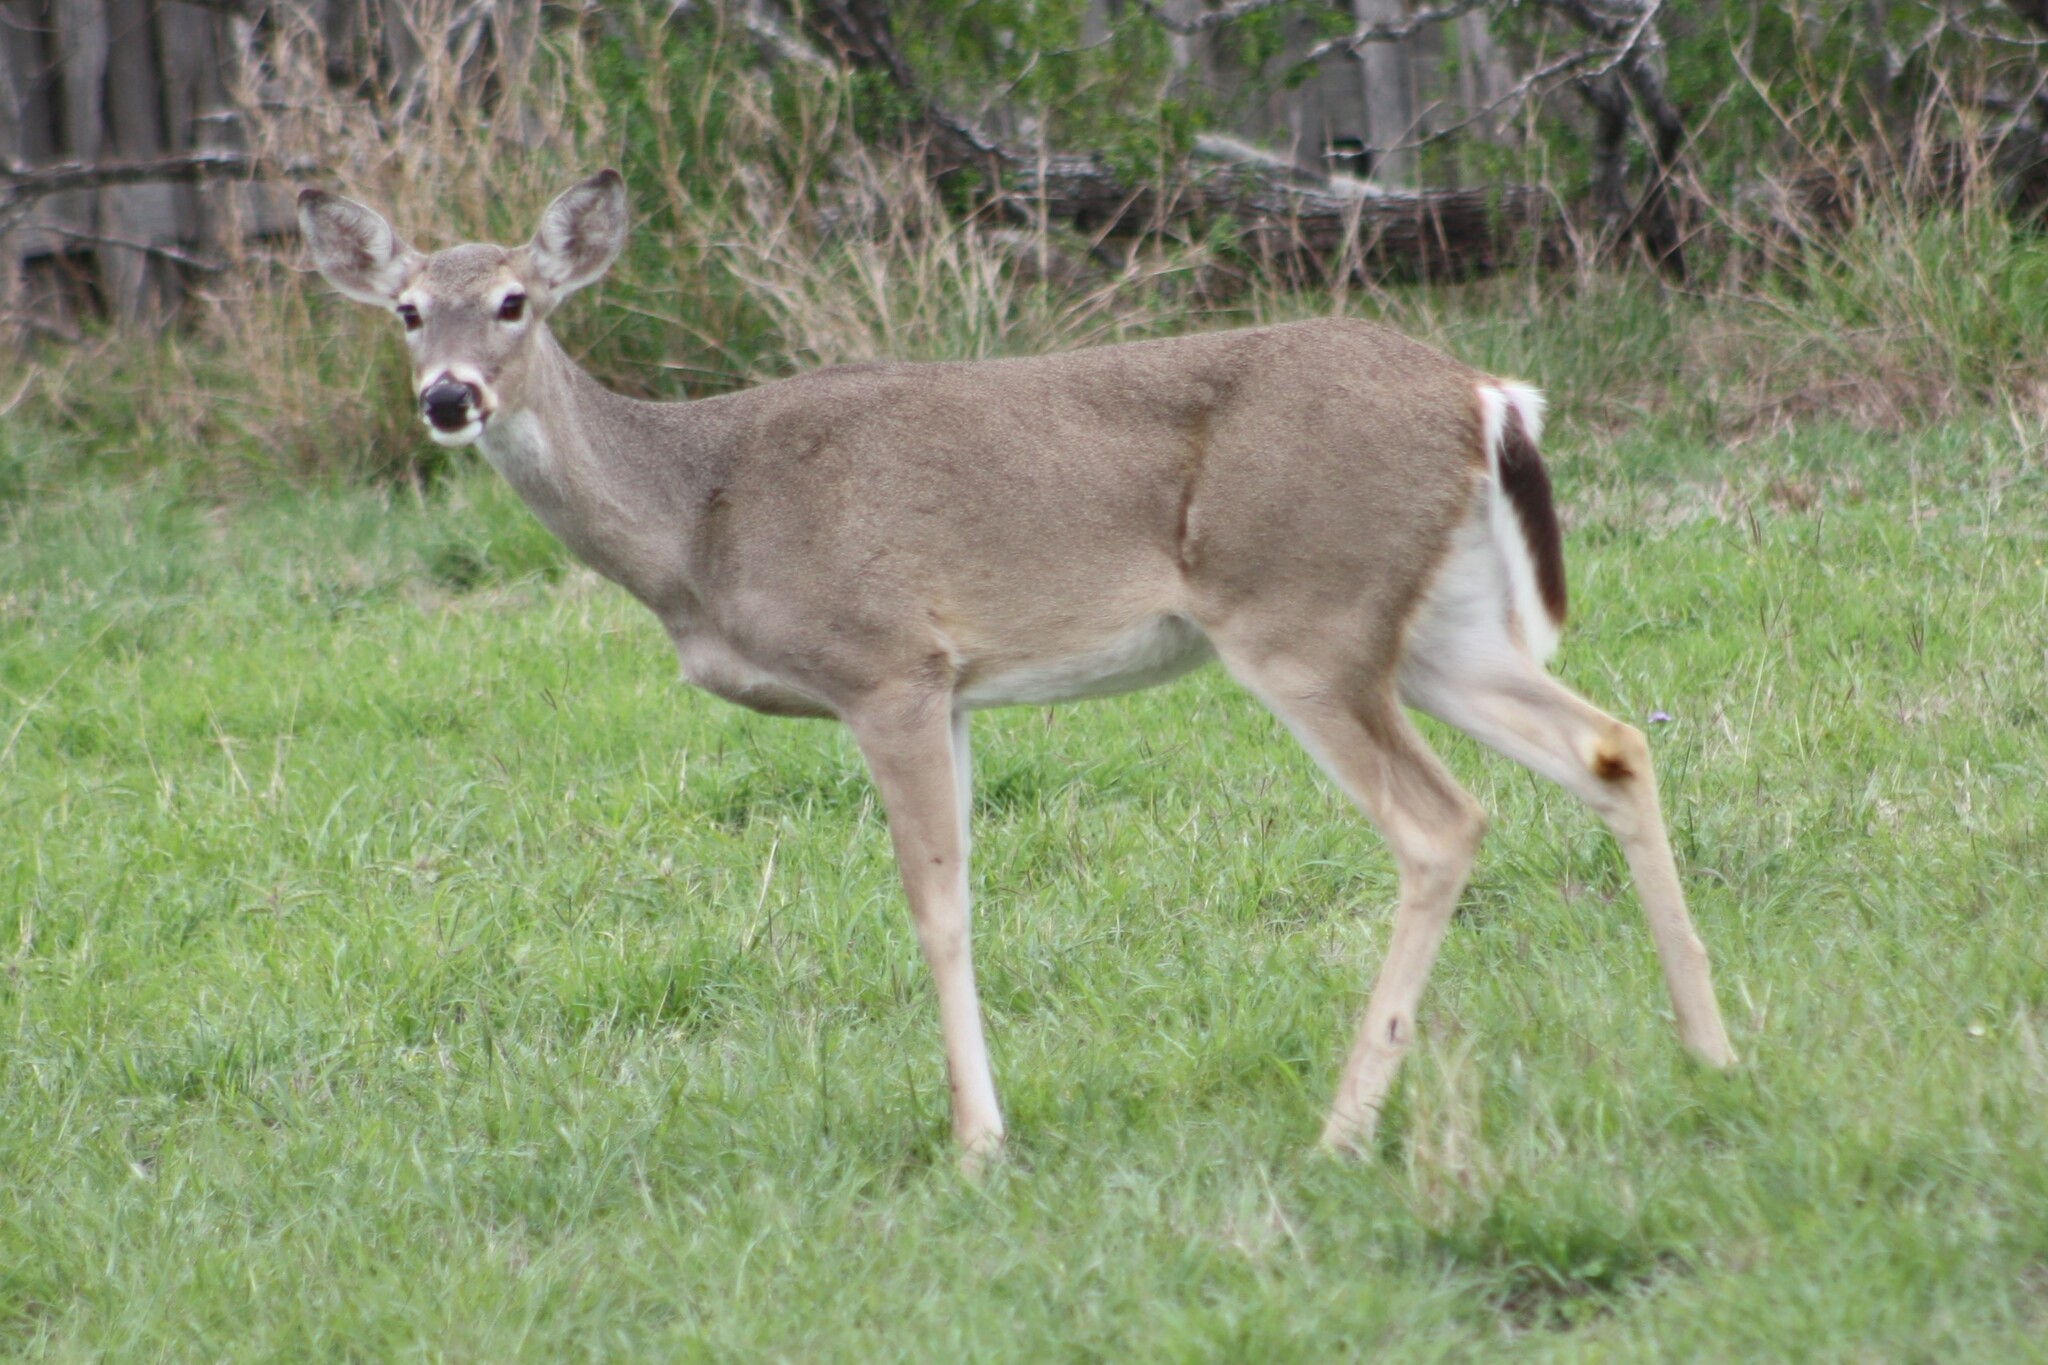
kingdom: Animalia
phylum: Chordata
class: Mammalia
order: Artiodactyla
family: Cervidae
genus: Odocoileus
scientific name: Odocoileus virginianus
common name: White-tailed deer
